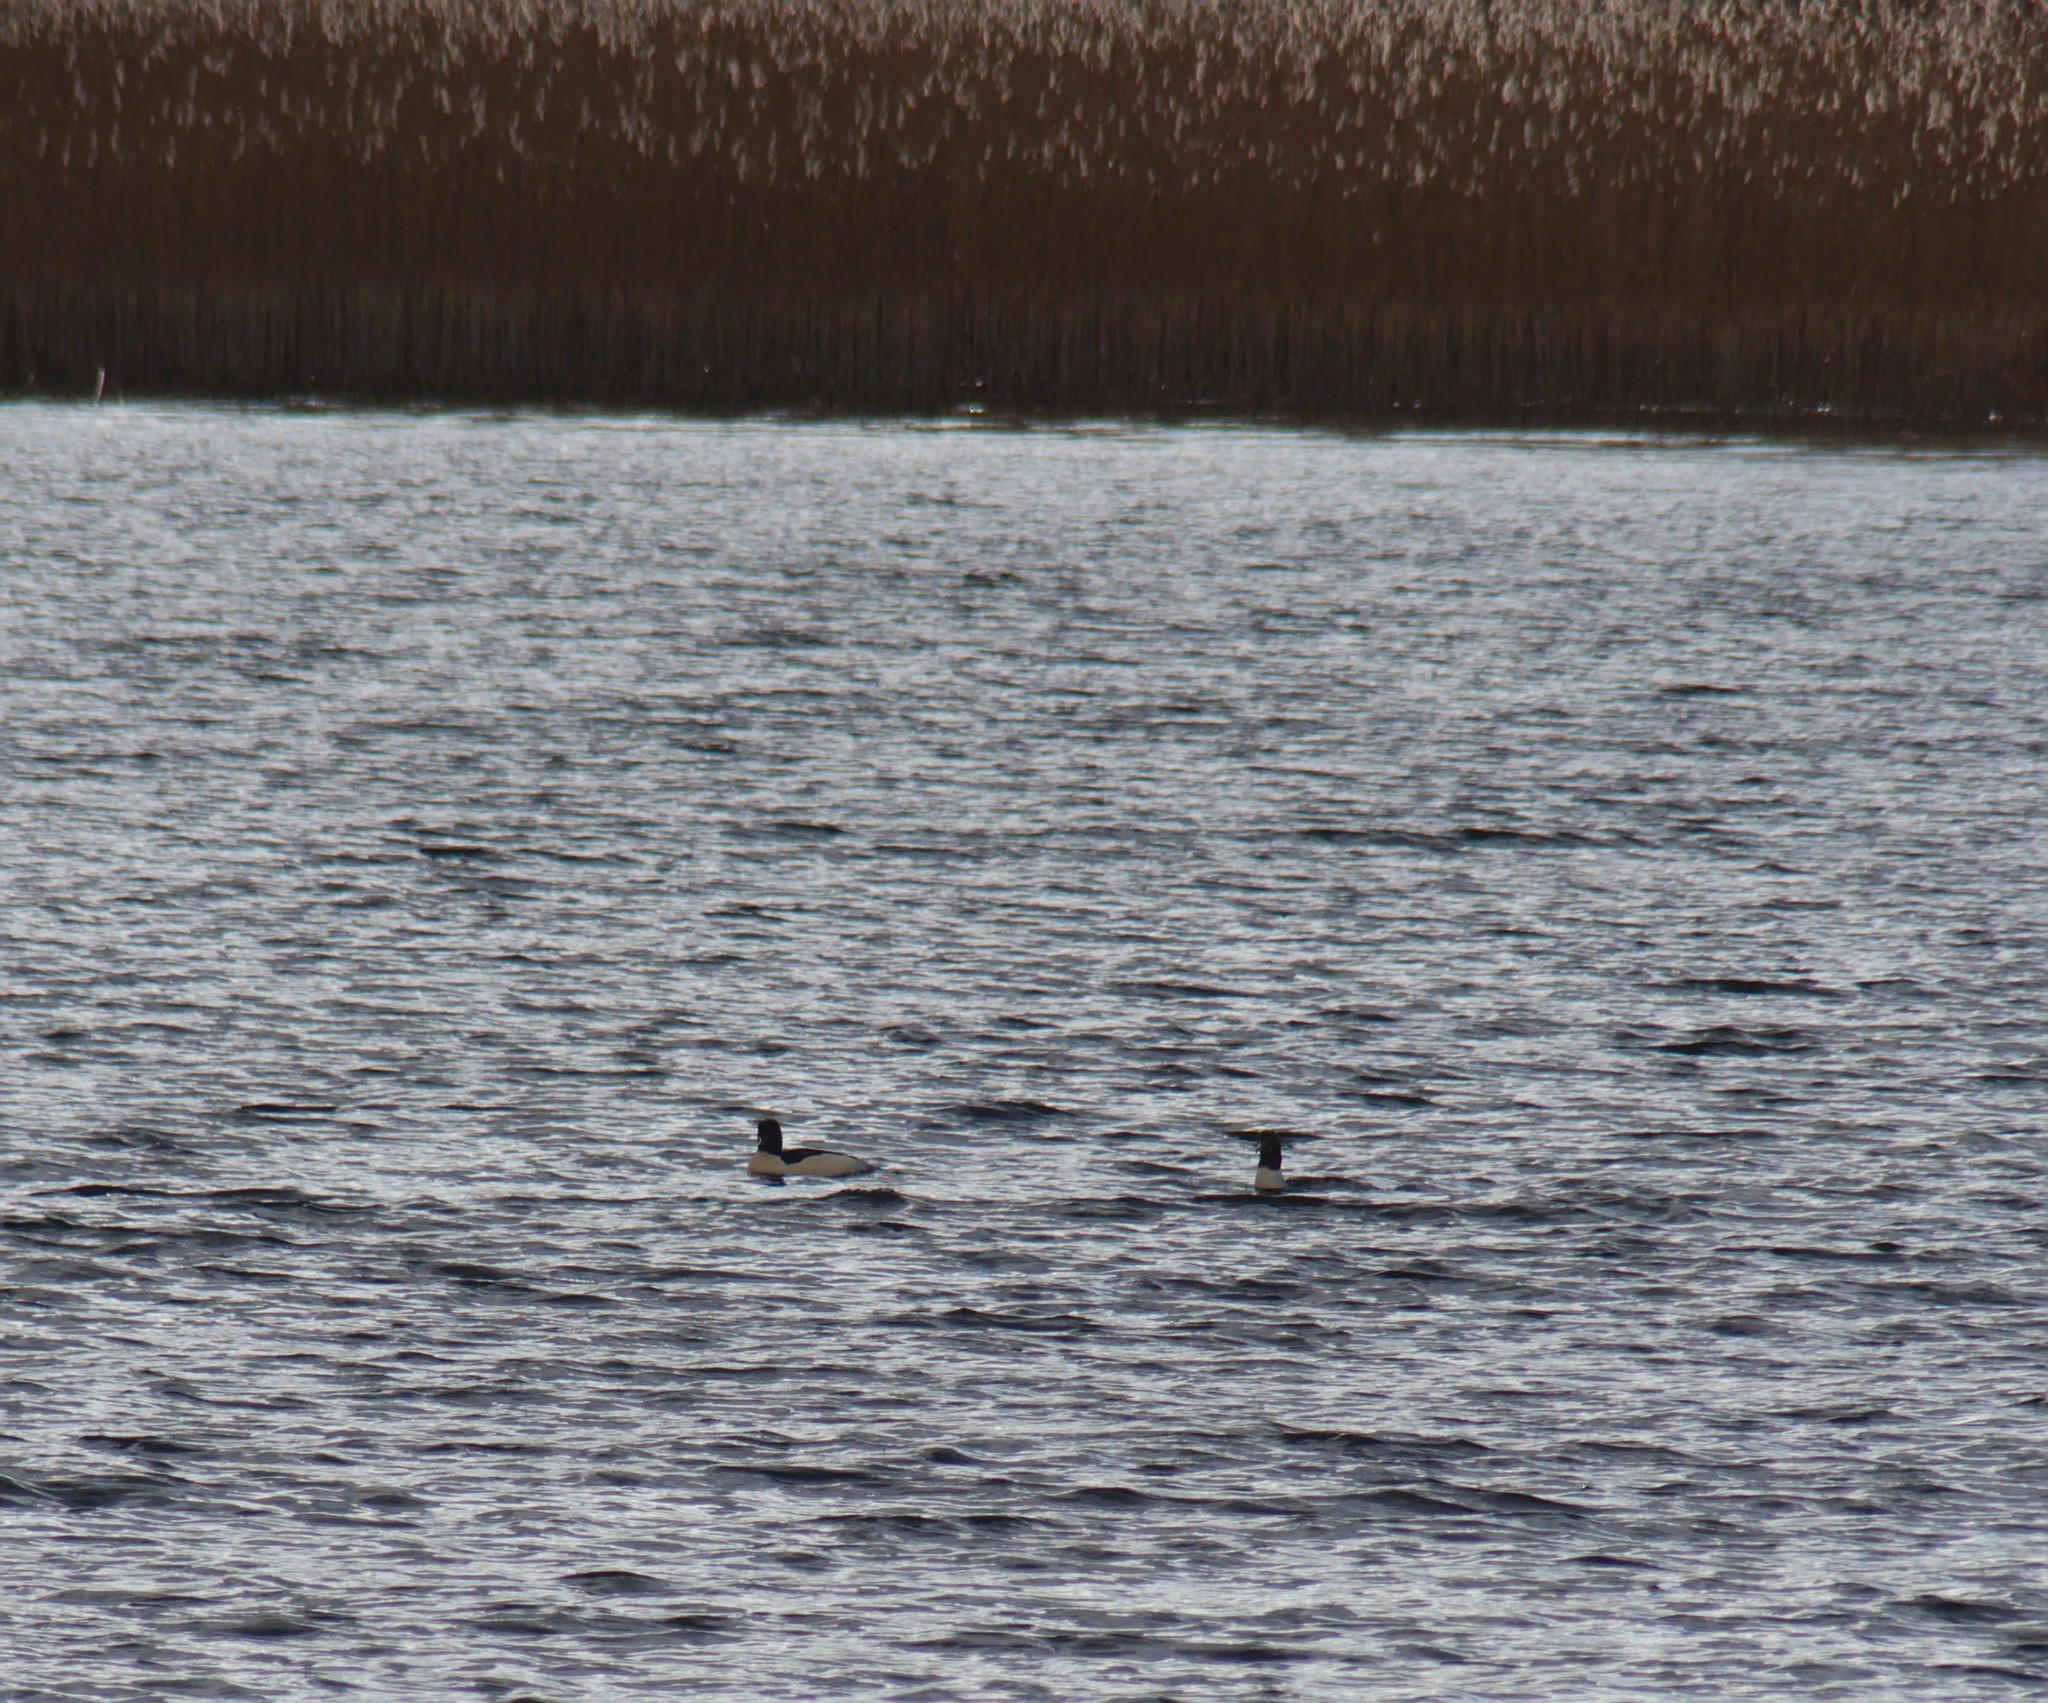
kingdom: Animalia
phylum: Chordata
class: Aves
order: Anseriformes
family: Anatidae
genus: Mergus
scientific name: Mergus merganser
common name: Common merganser
